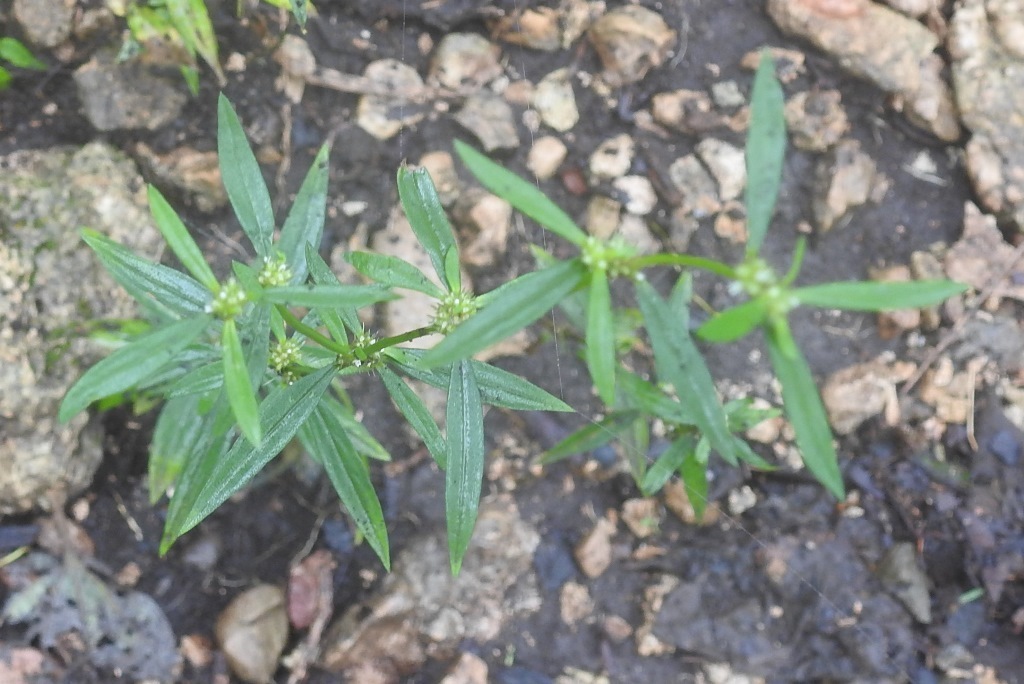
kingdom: Plantae
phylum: Tracheophyta
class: Magnoliopsida
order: Gentianales
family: Rubiaceae
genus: Spermacoce
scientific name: Spermacoce verticillata
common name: Shrubby false buttonweed
